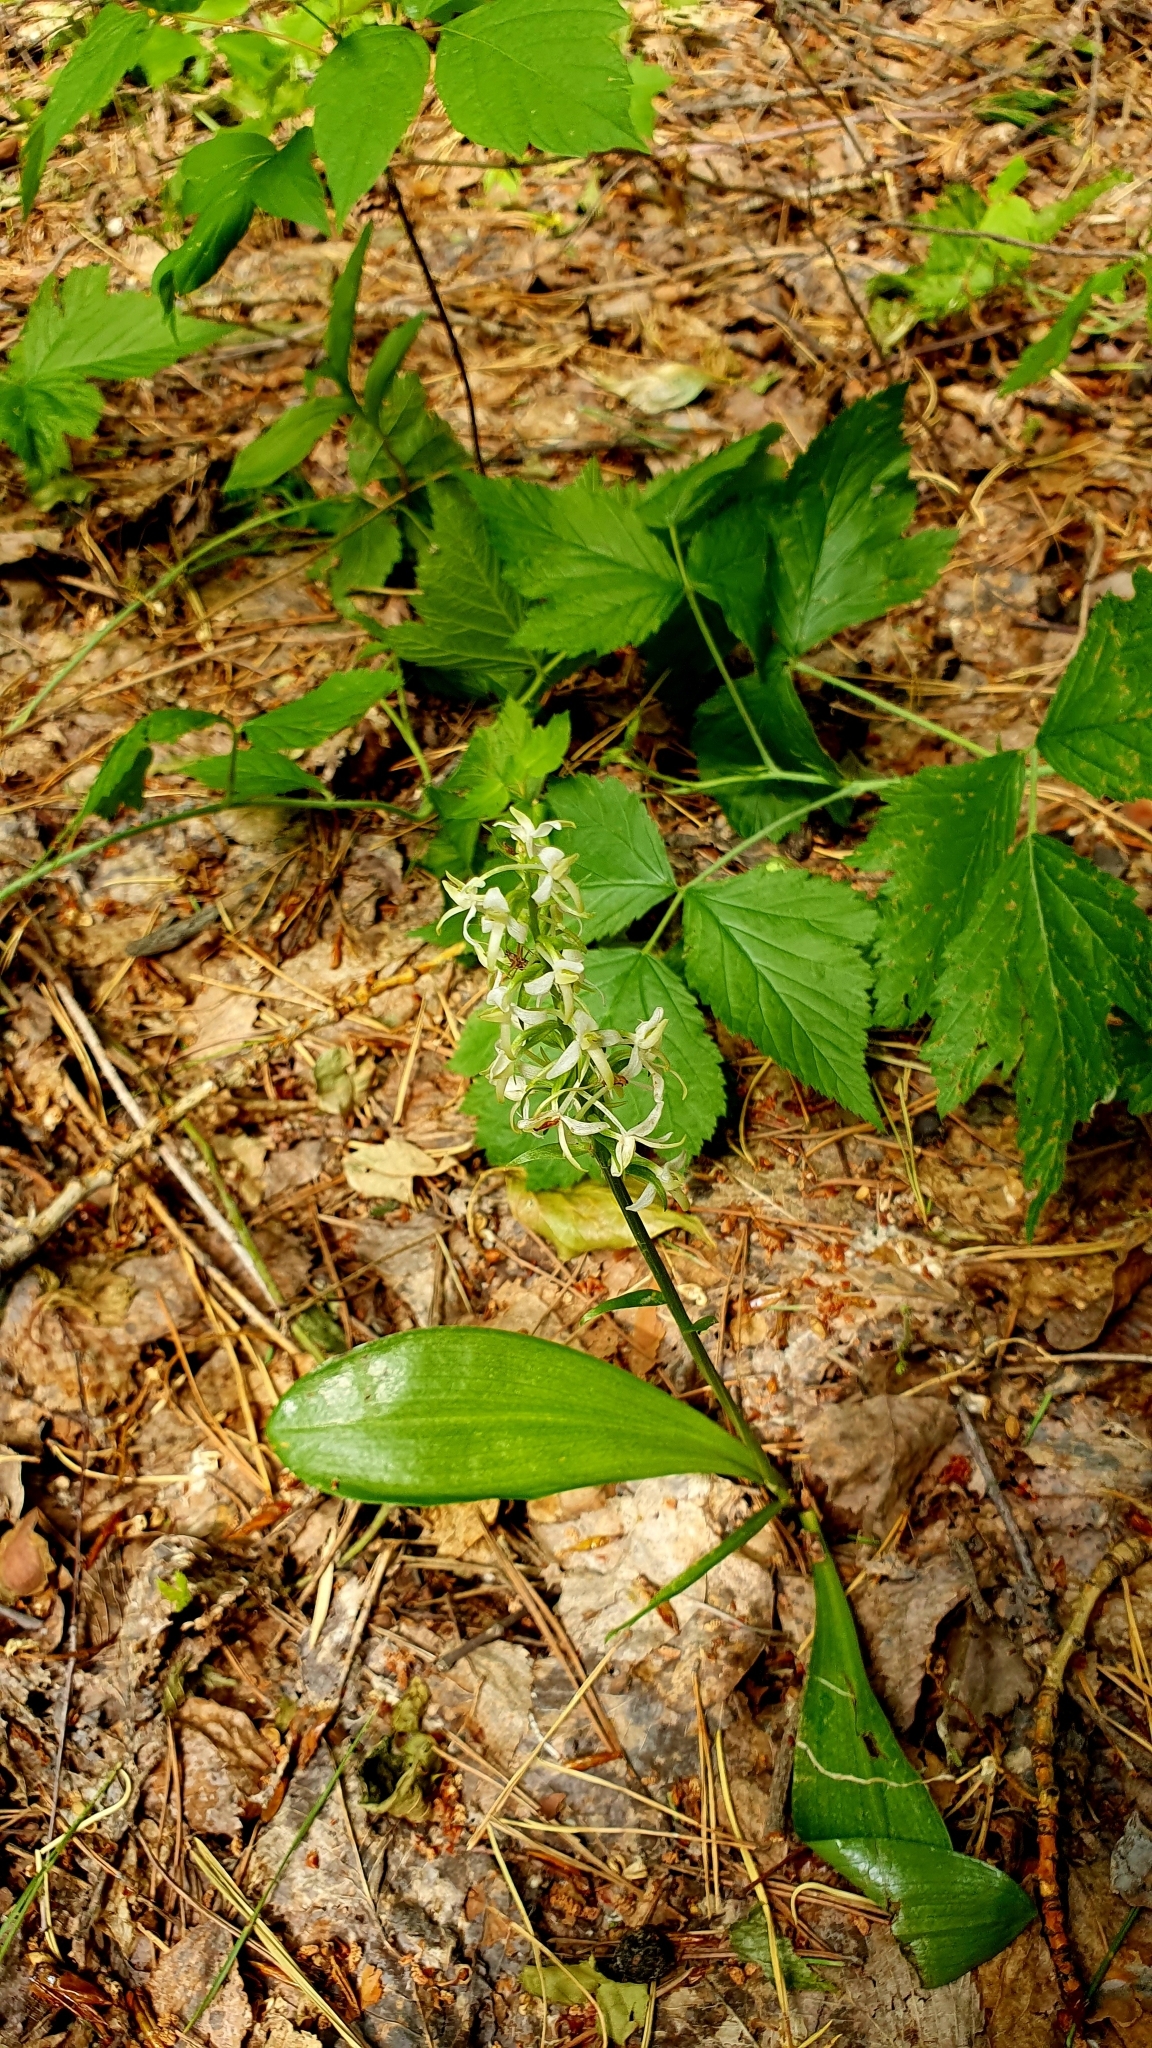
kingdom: Plantae
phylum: Tracheophyta
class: Liliopsida
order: Asparagales
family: Orchidaceae
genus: Platanthera
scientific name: Platanthera bifolia
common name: Lesser butterfly-orchid
